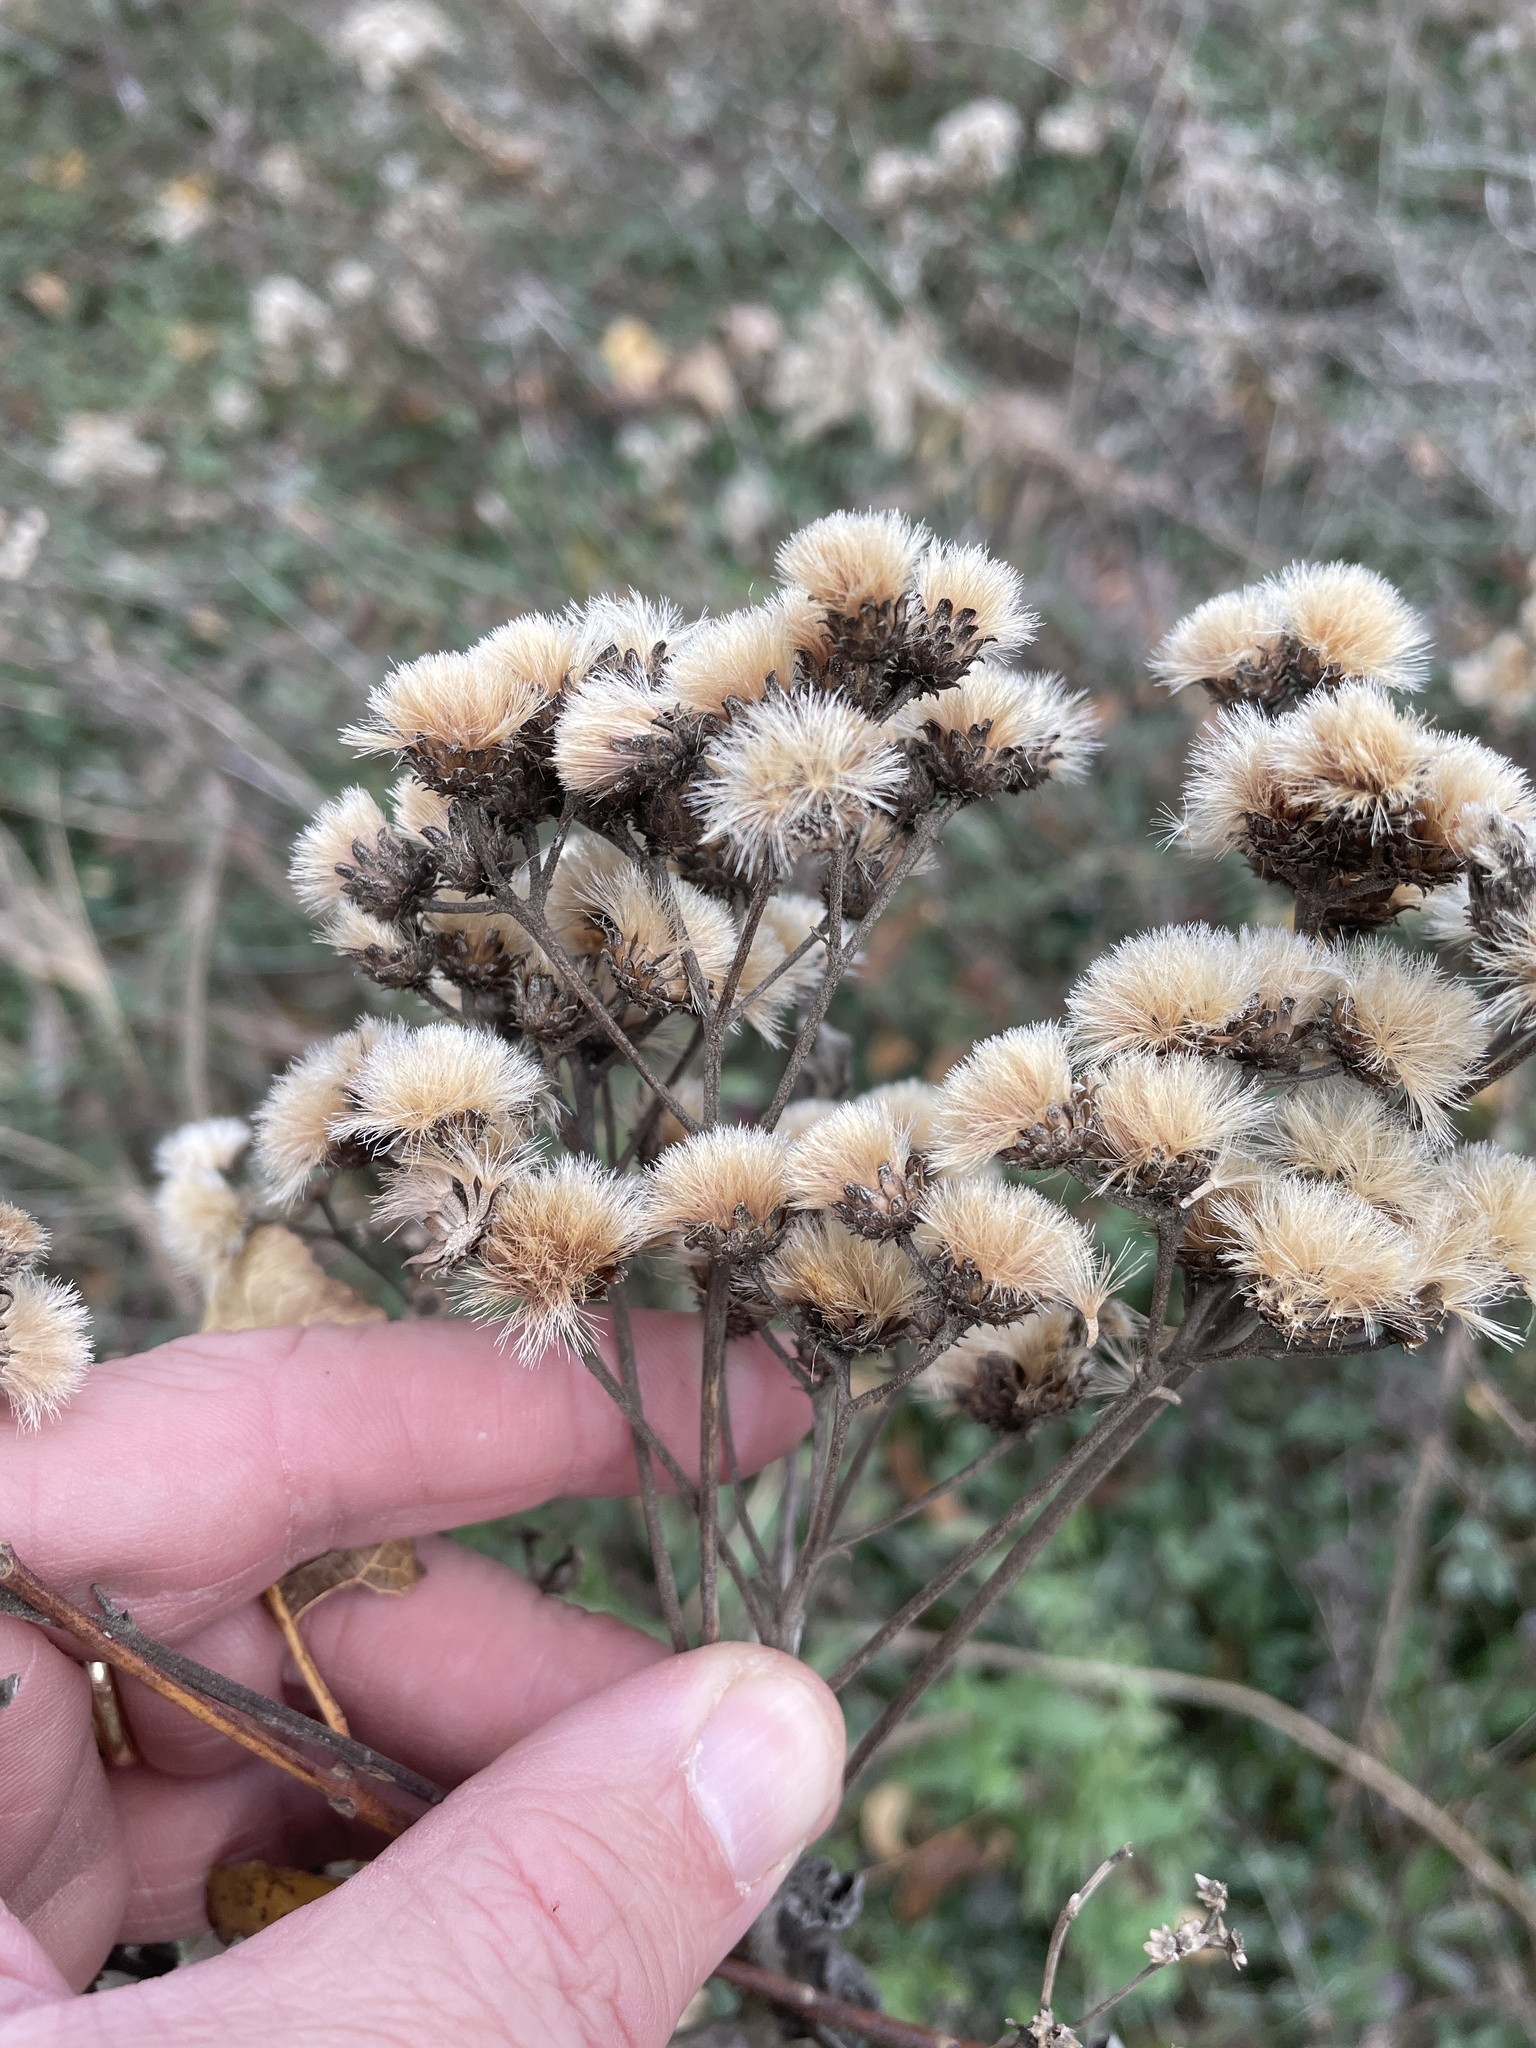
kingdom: Plantae
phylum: Tracheophyta
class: Magnoliopsida
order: Asterales
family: Asteraceae
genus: Vernonia
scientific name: Vernonia baldwinii
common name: Western ironweed
